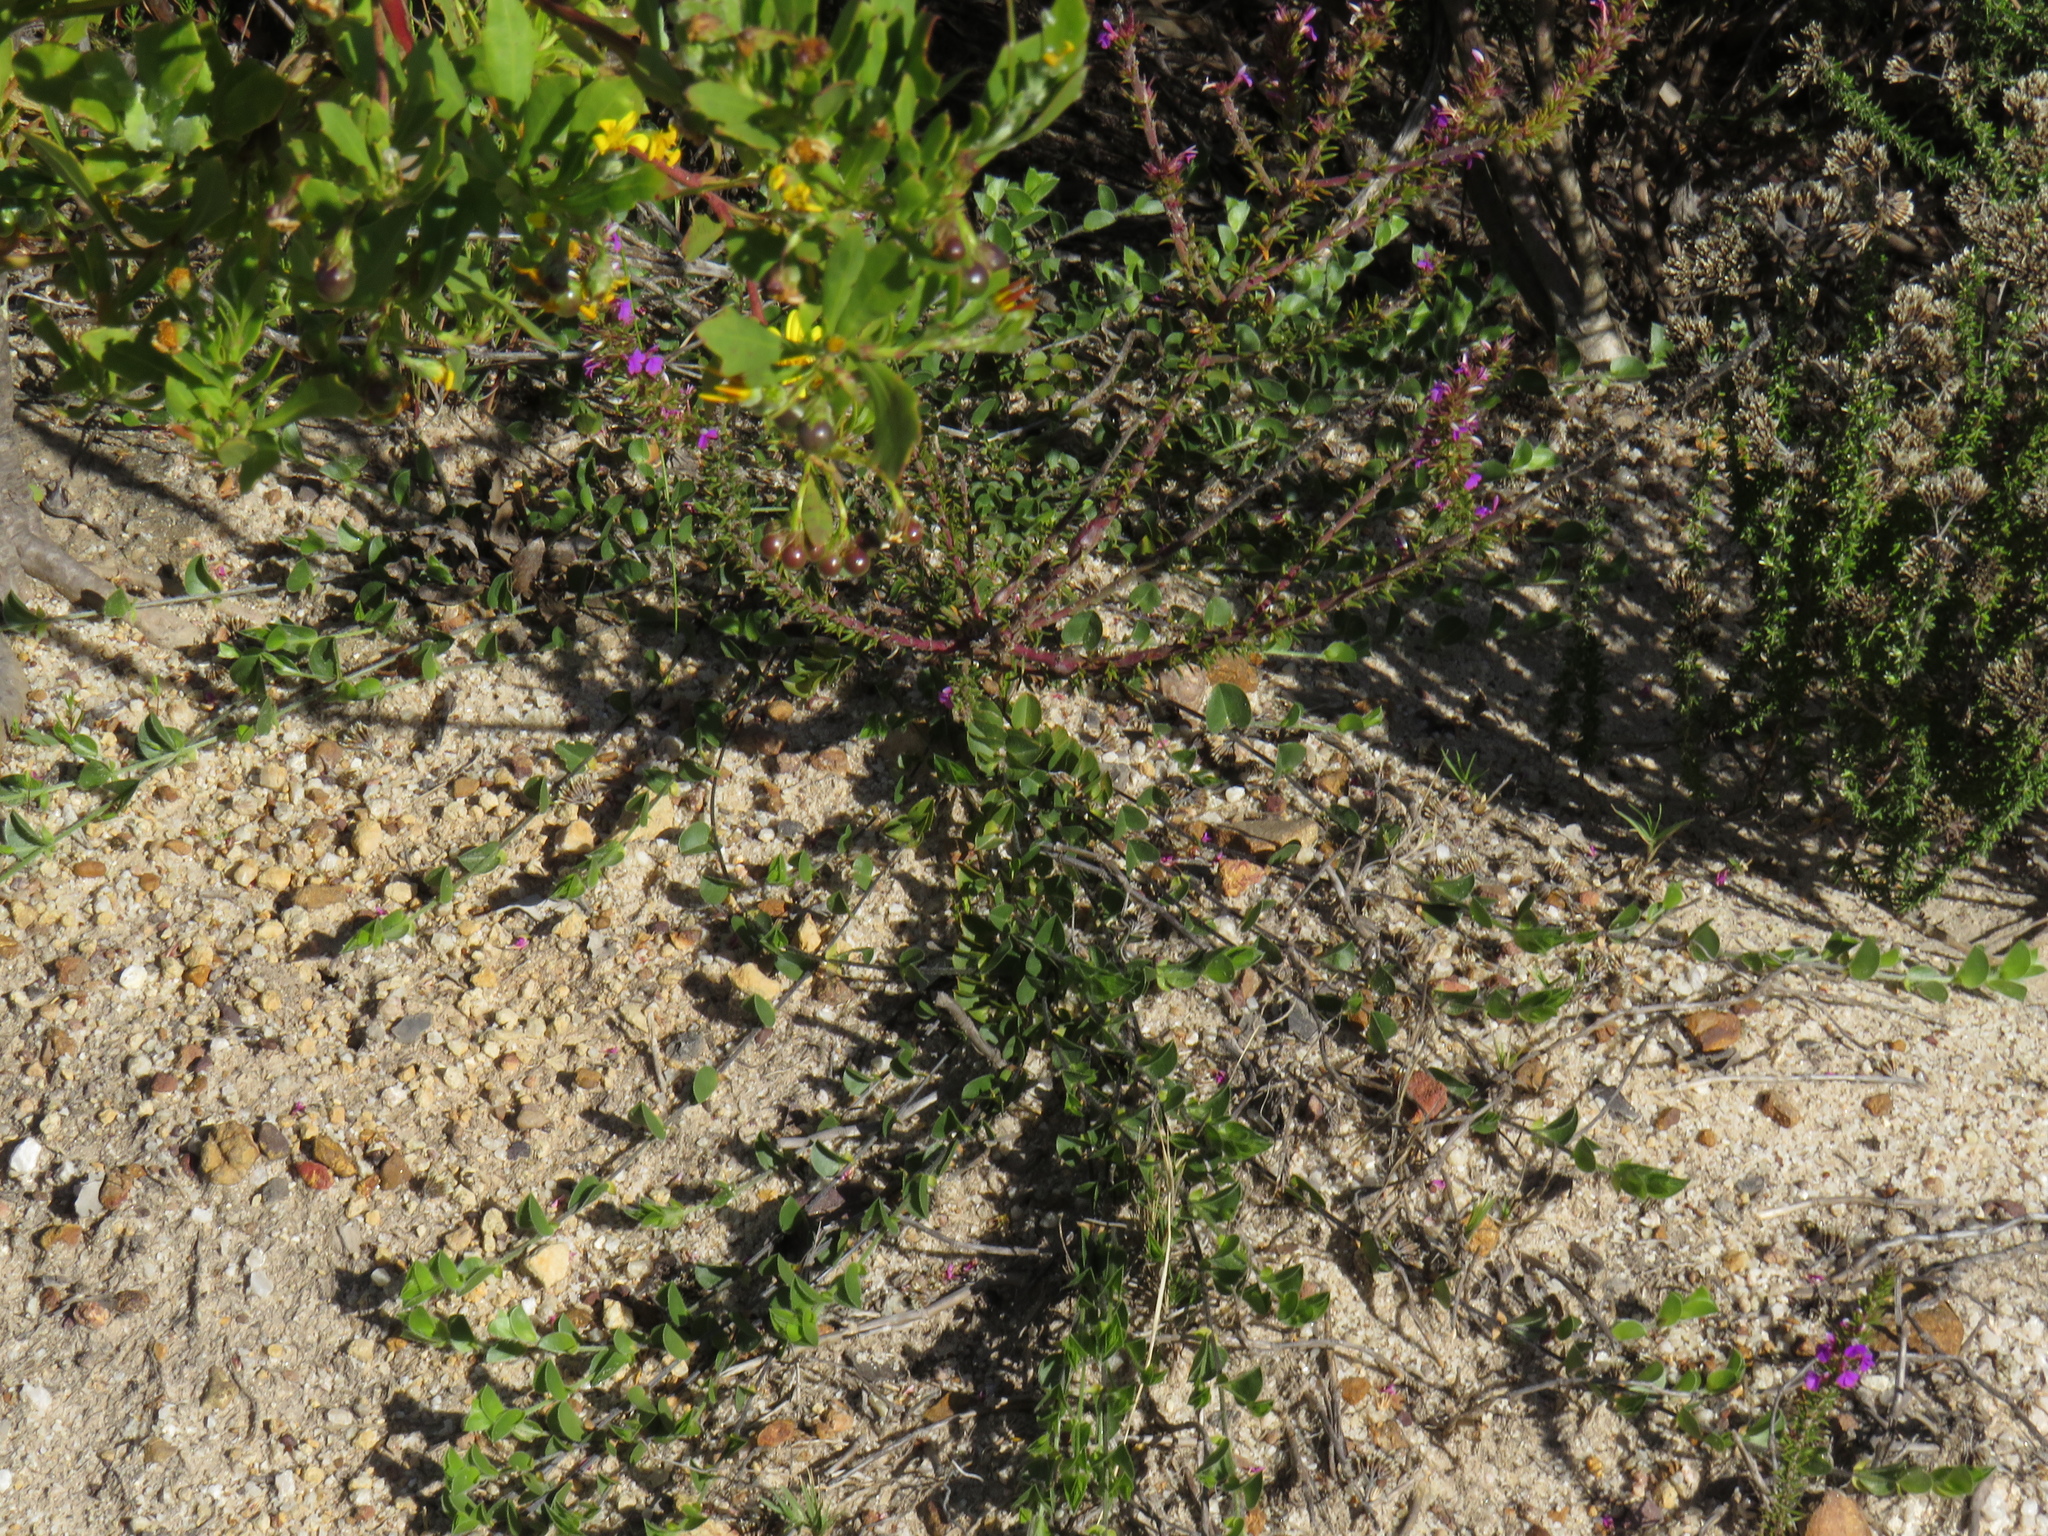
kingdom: Plantae
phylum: Tracheophyta
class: Magnoliopsida
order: Fabales
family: Fabaceae
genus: Psoralea
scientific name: Psoralea imbricata
